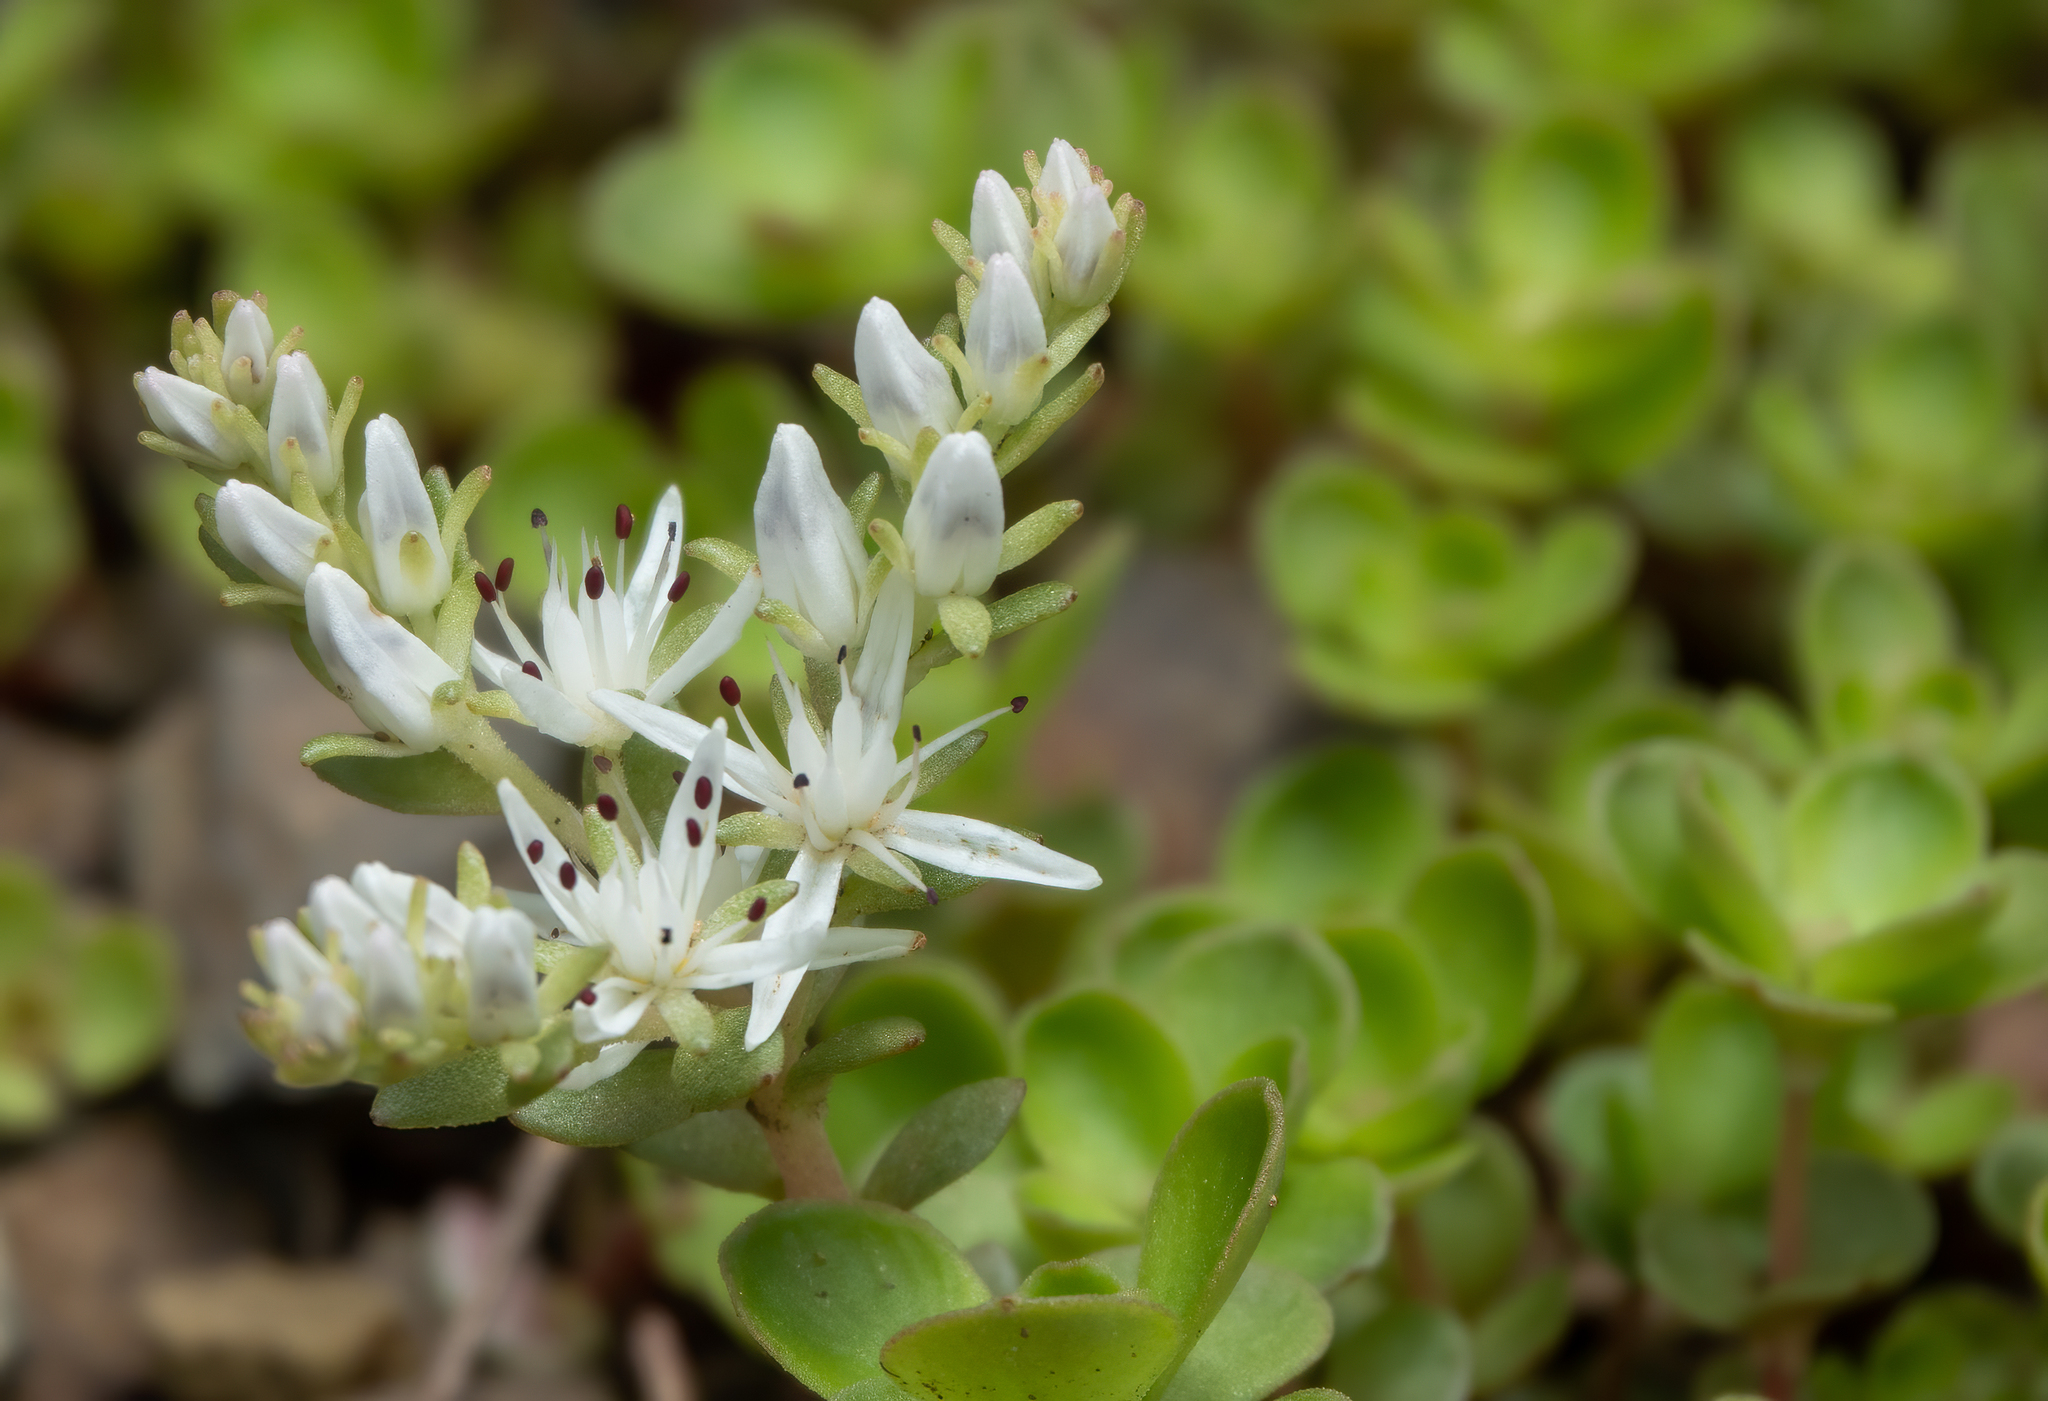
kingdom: Plantae
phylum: Tracheophyta
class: Magnoliopsida
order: Saxifragales
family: Crassulaceae
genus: Sedum
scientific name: Sedum ternatum
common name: Wild stonecrop
